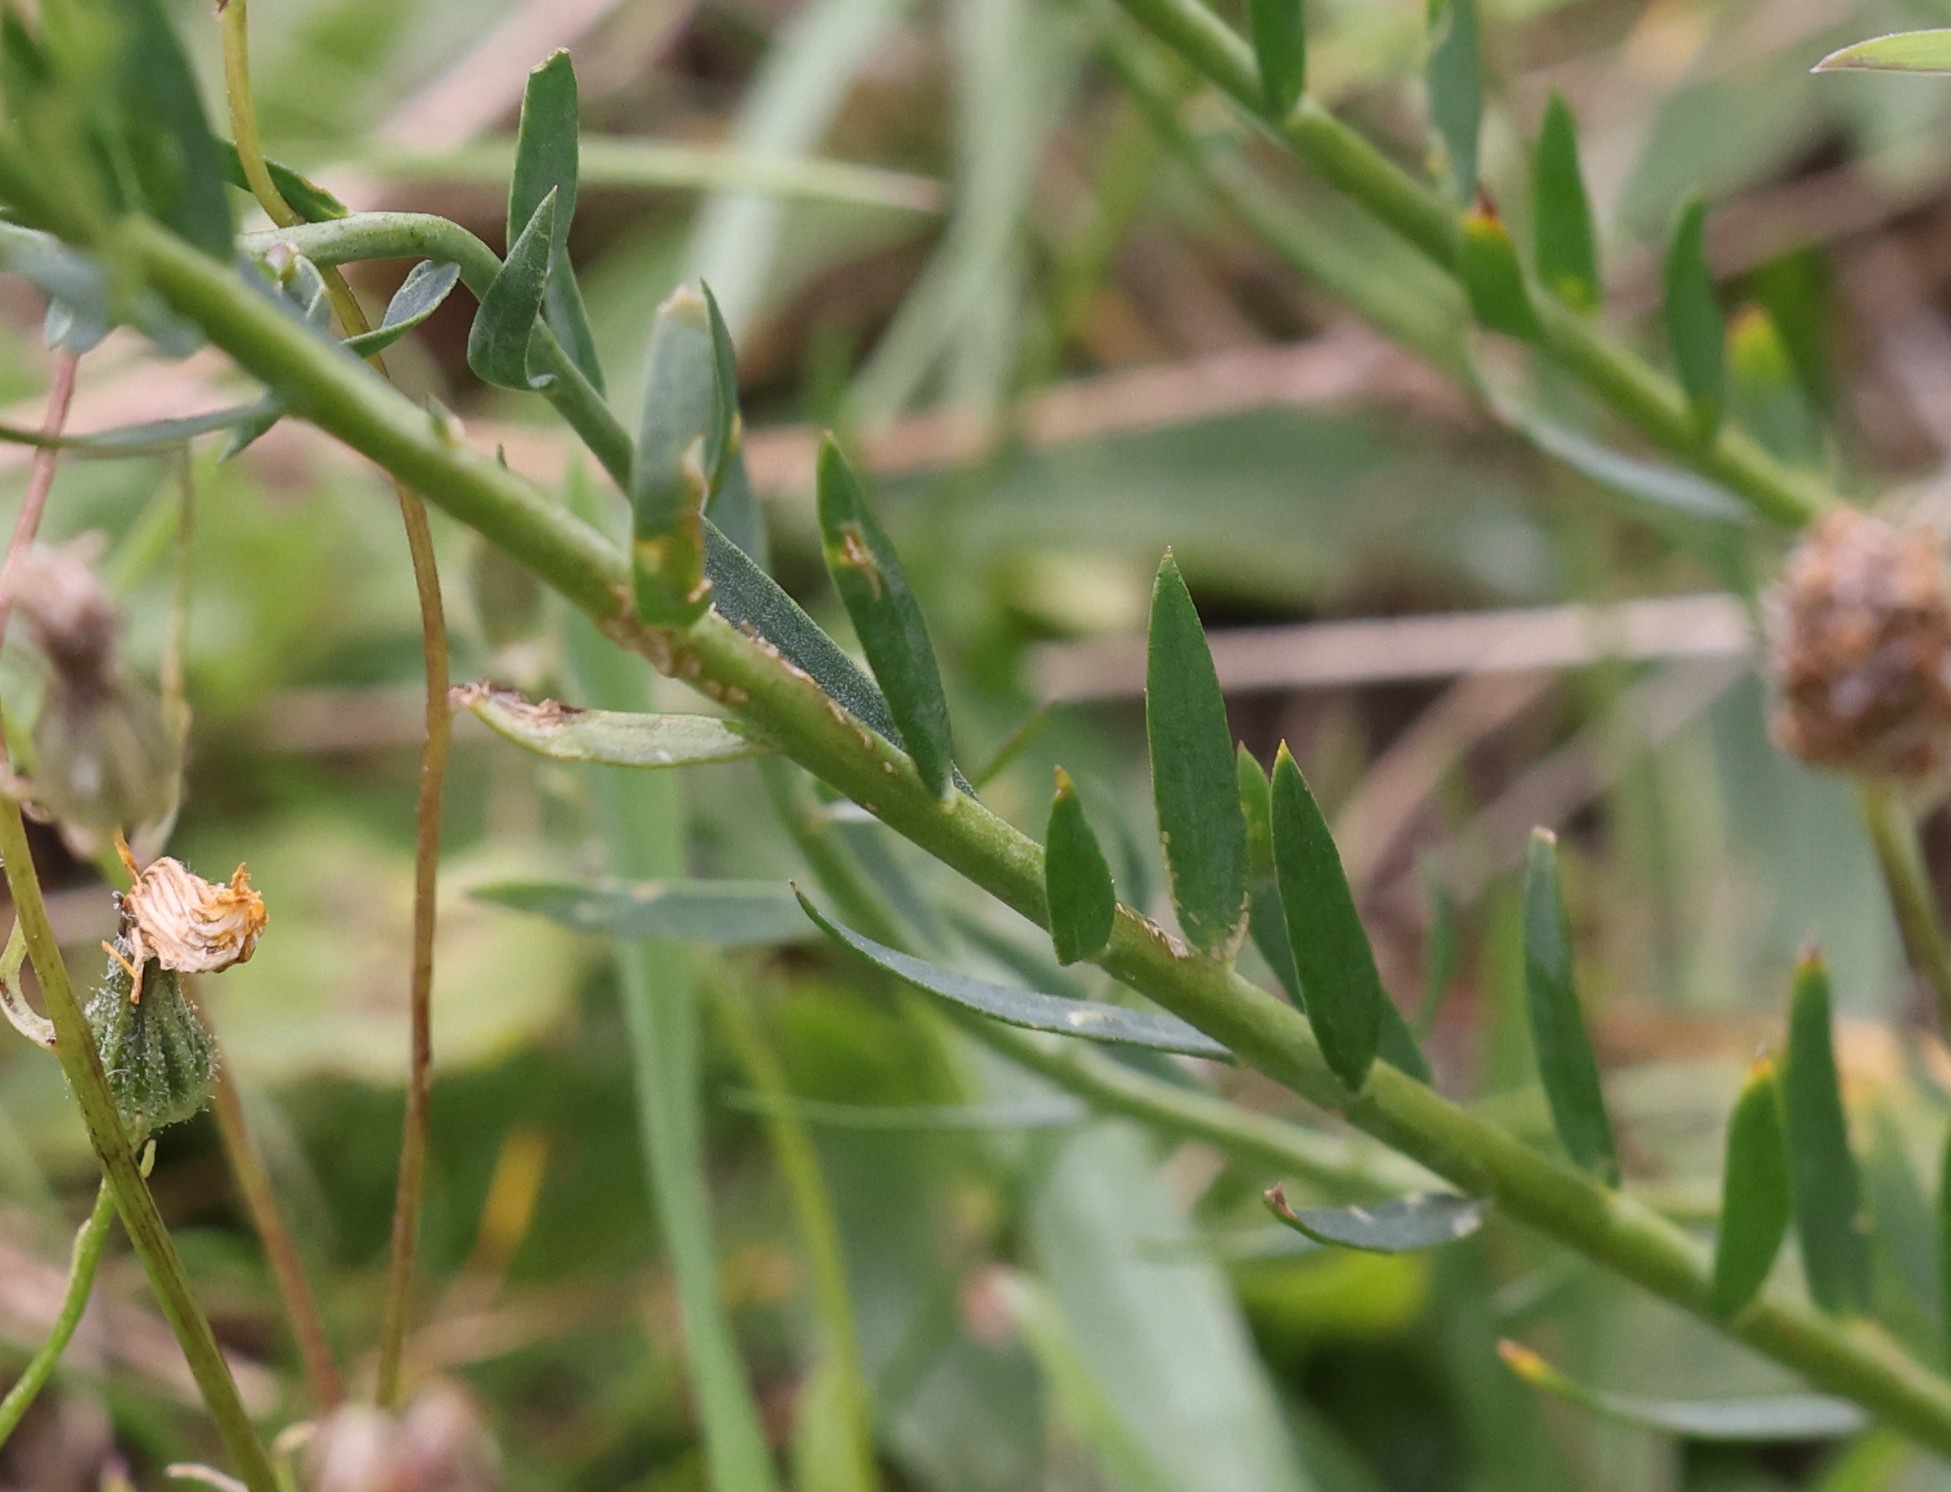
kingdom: Plantae
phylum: Tracheophyta
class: Magnoliopsida
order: Malpighiales
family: Linaceae
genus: Linum
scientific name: Linum perenne
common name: Blue flax
